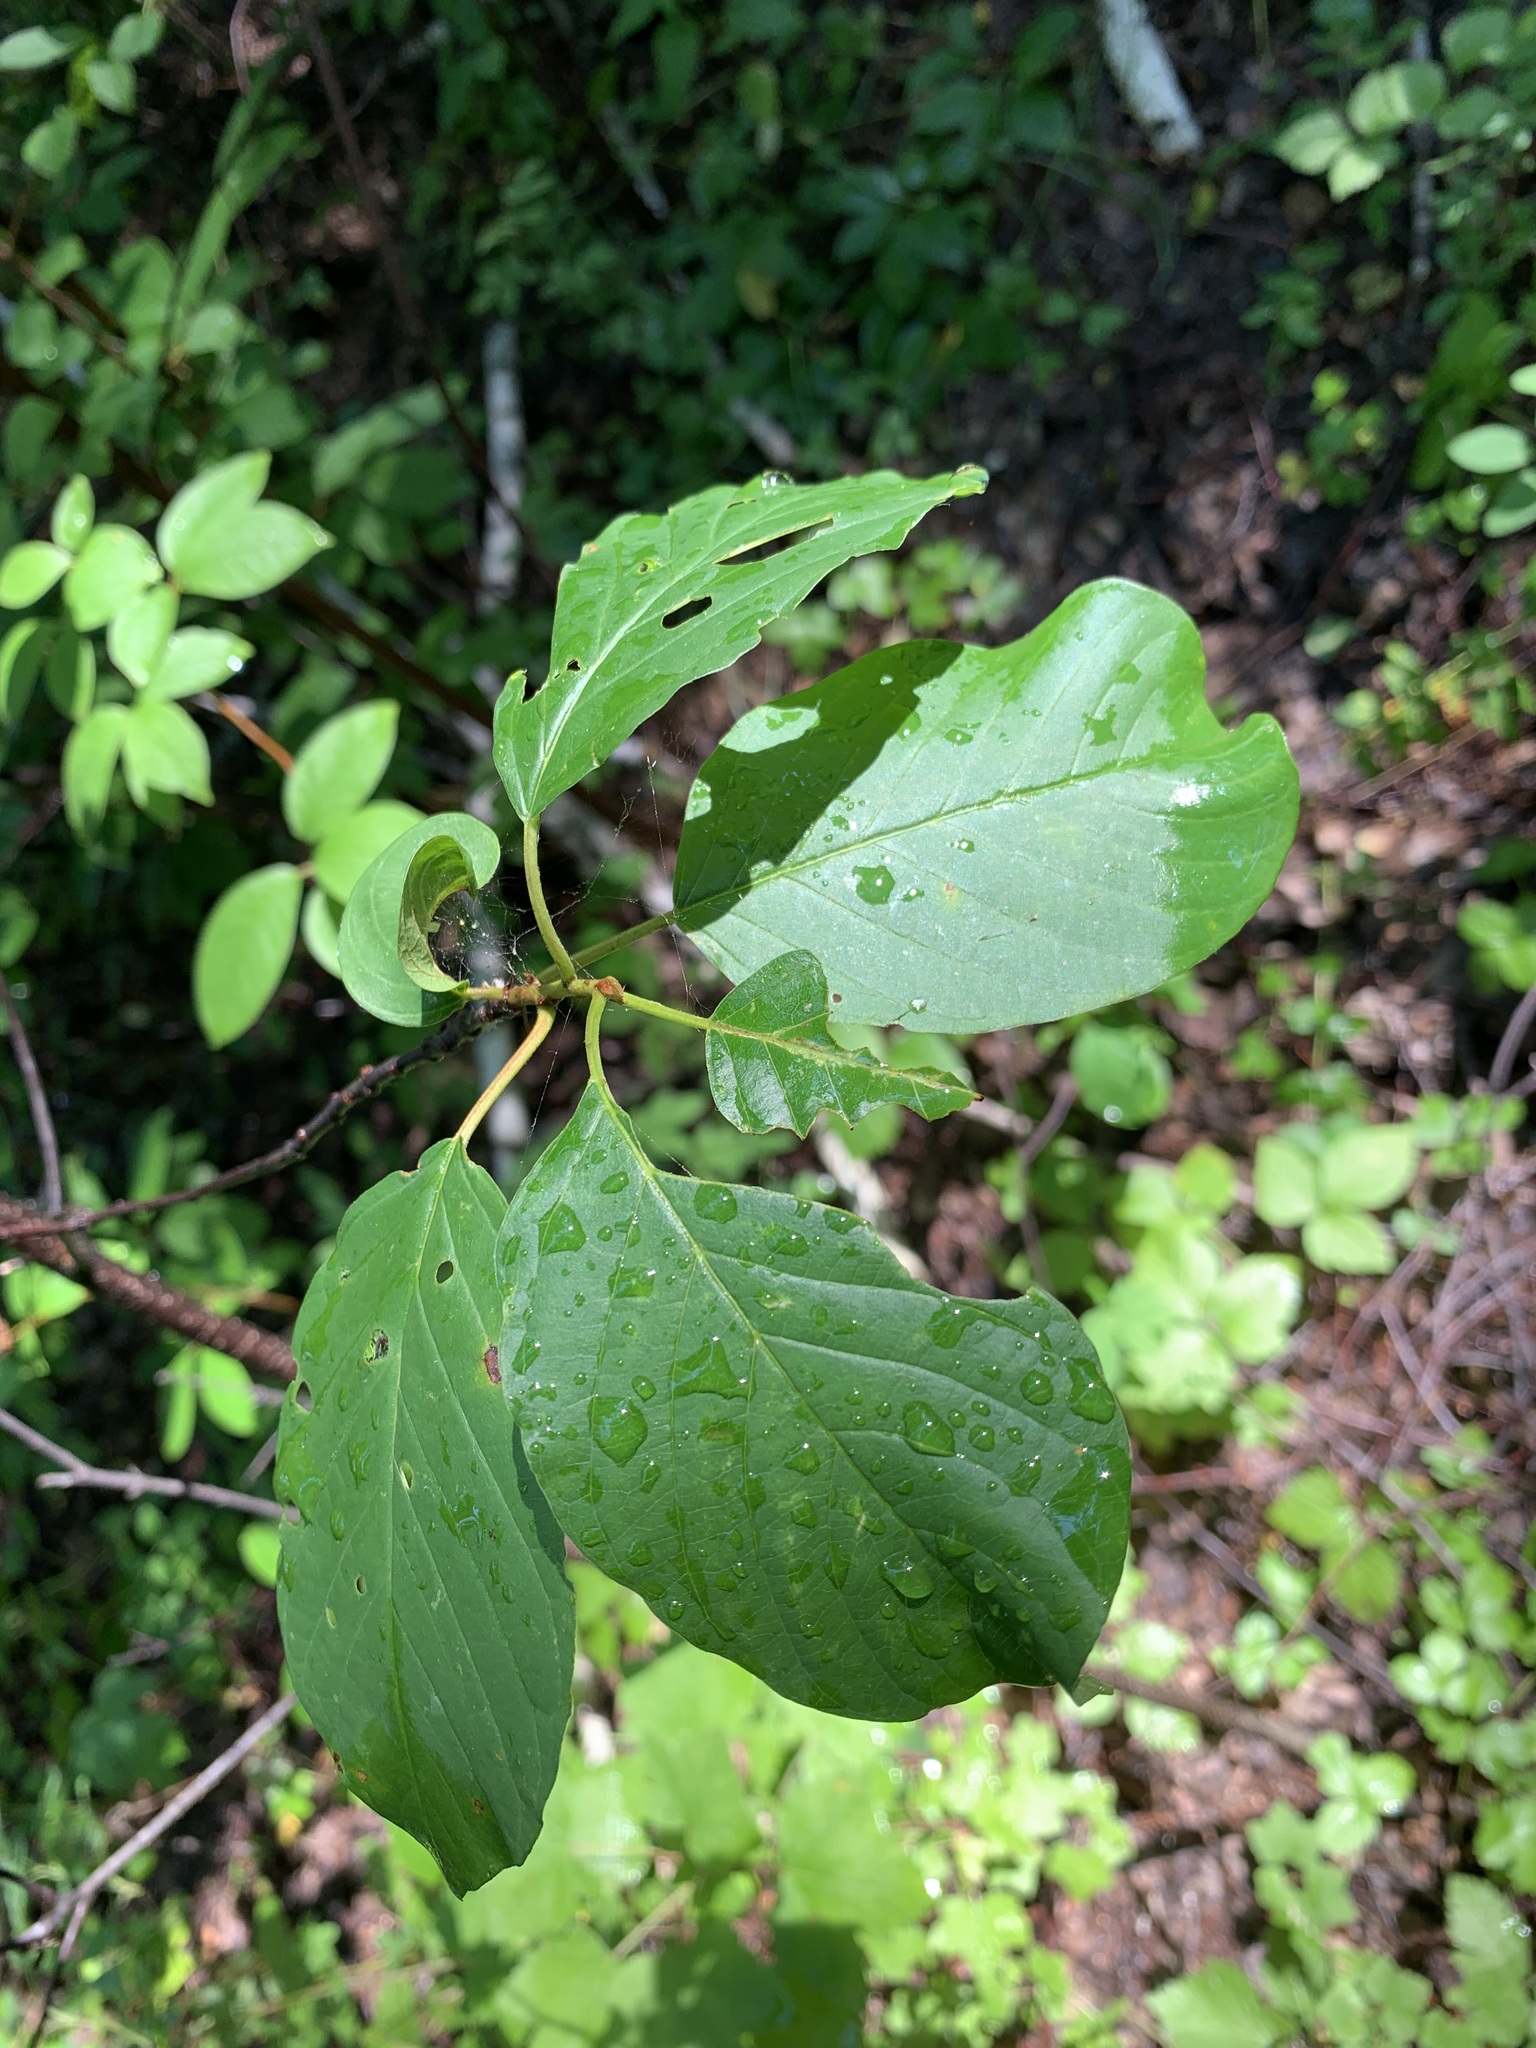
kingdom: Plantae
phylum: Tracheophyta
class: Magnoliopsida
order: Rosales
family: Rhamnaceae
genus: Frangula
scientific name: Frangula alnus
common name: Alder buckthorn
